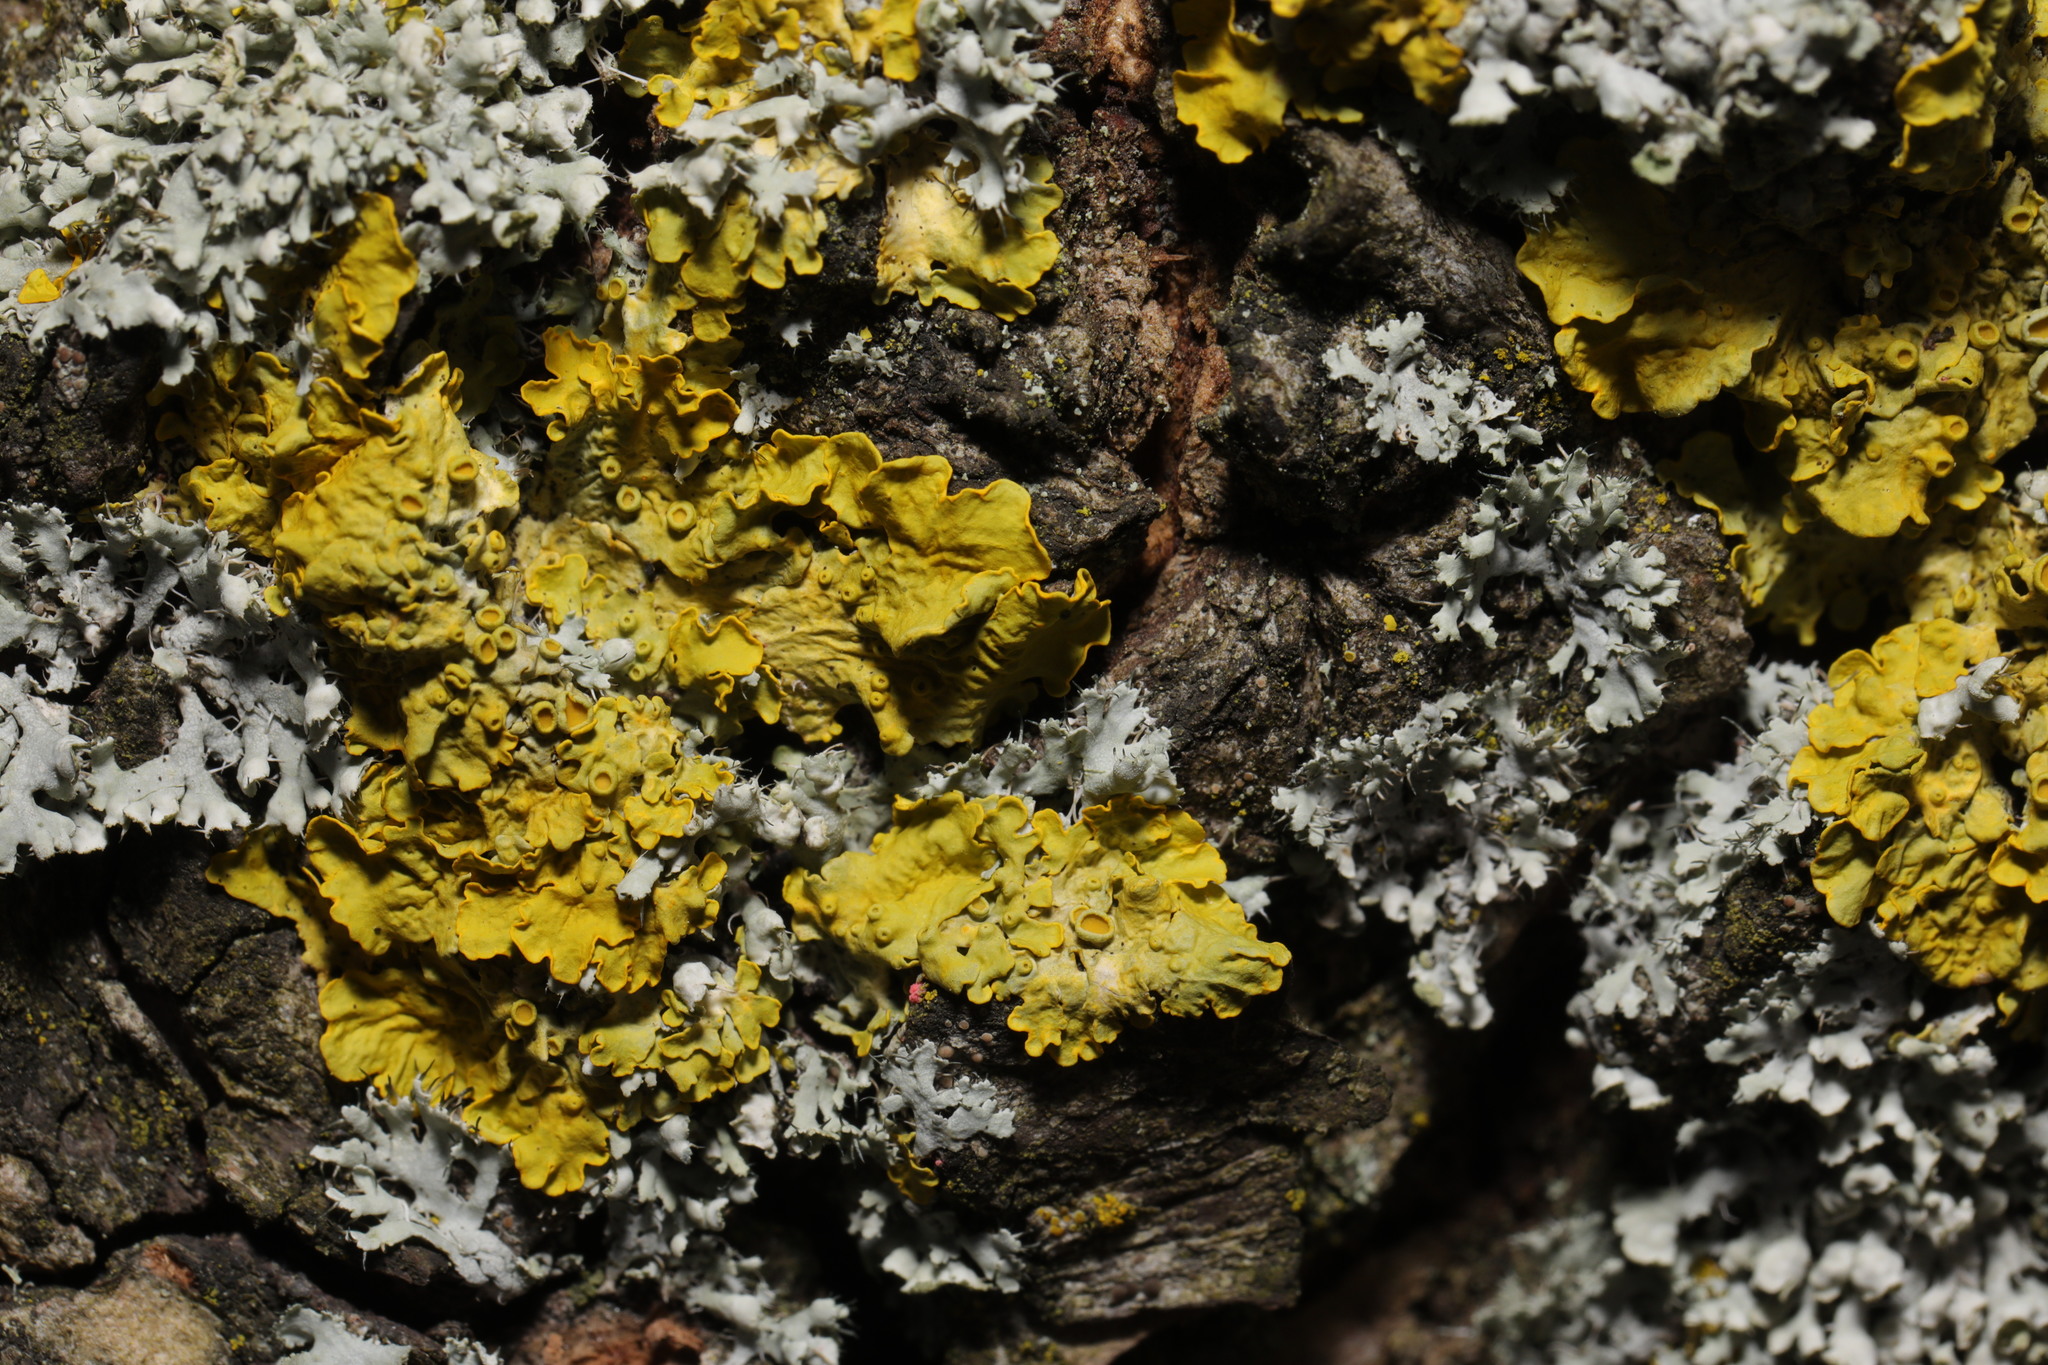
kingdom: Fungi
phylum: Ascomycota
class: Lecanoromycetes
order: Teloschistales
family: Teloschistaceae
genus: Xanthoria
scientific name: Xanthoria parietina
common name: Common orange lichen
